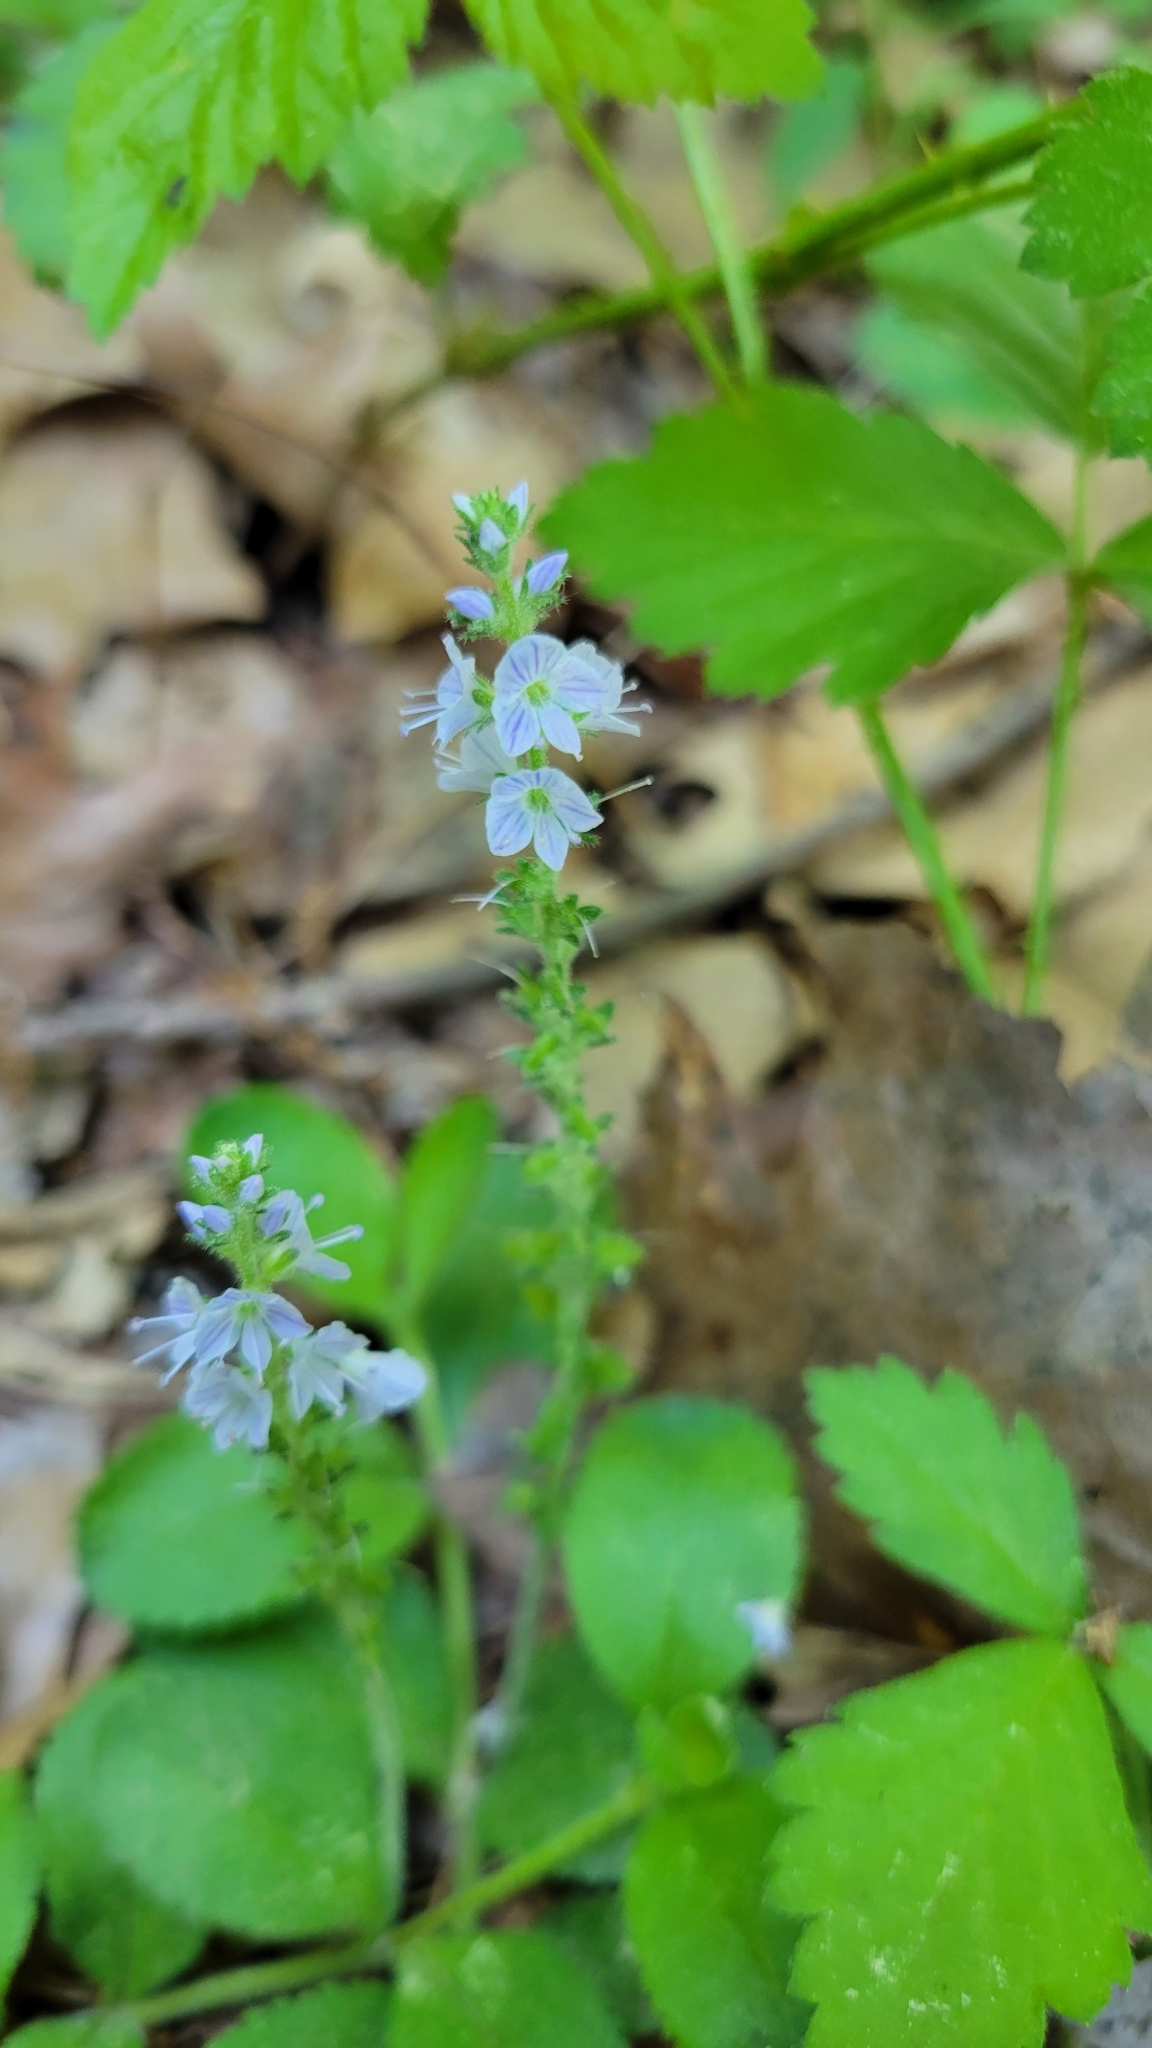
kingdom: Plantae
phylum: Tracheophyta
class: Magnoliopsida
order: Lamiales
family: Plantaginaceae
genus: Veronica
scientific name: Veronica officinalis
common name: Common speedwell
